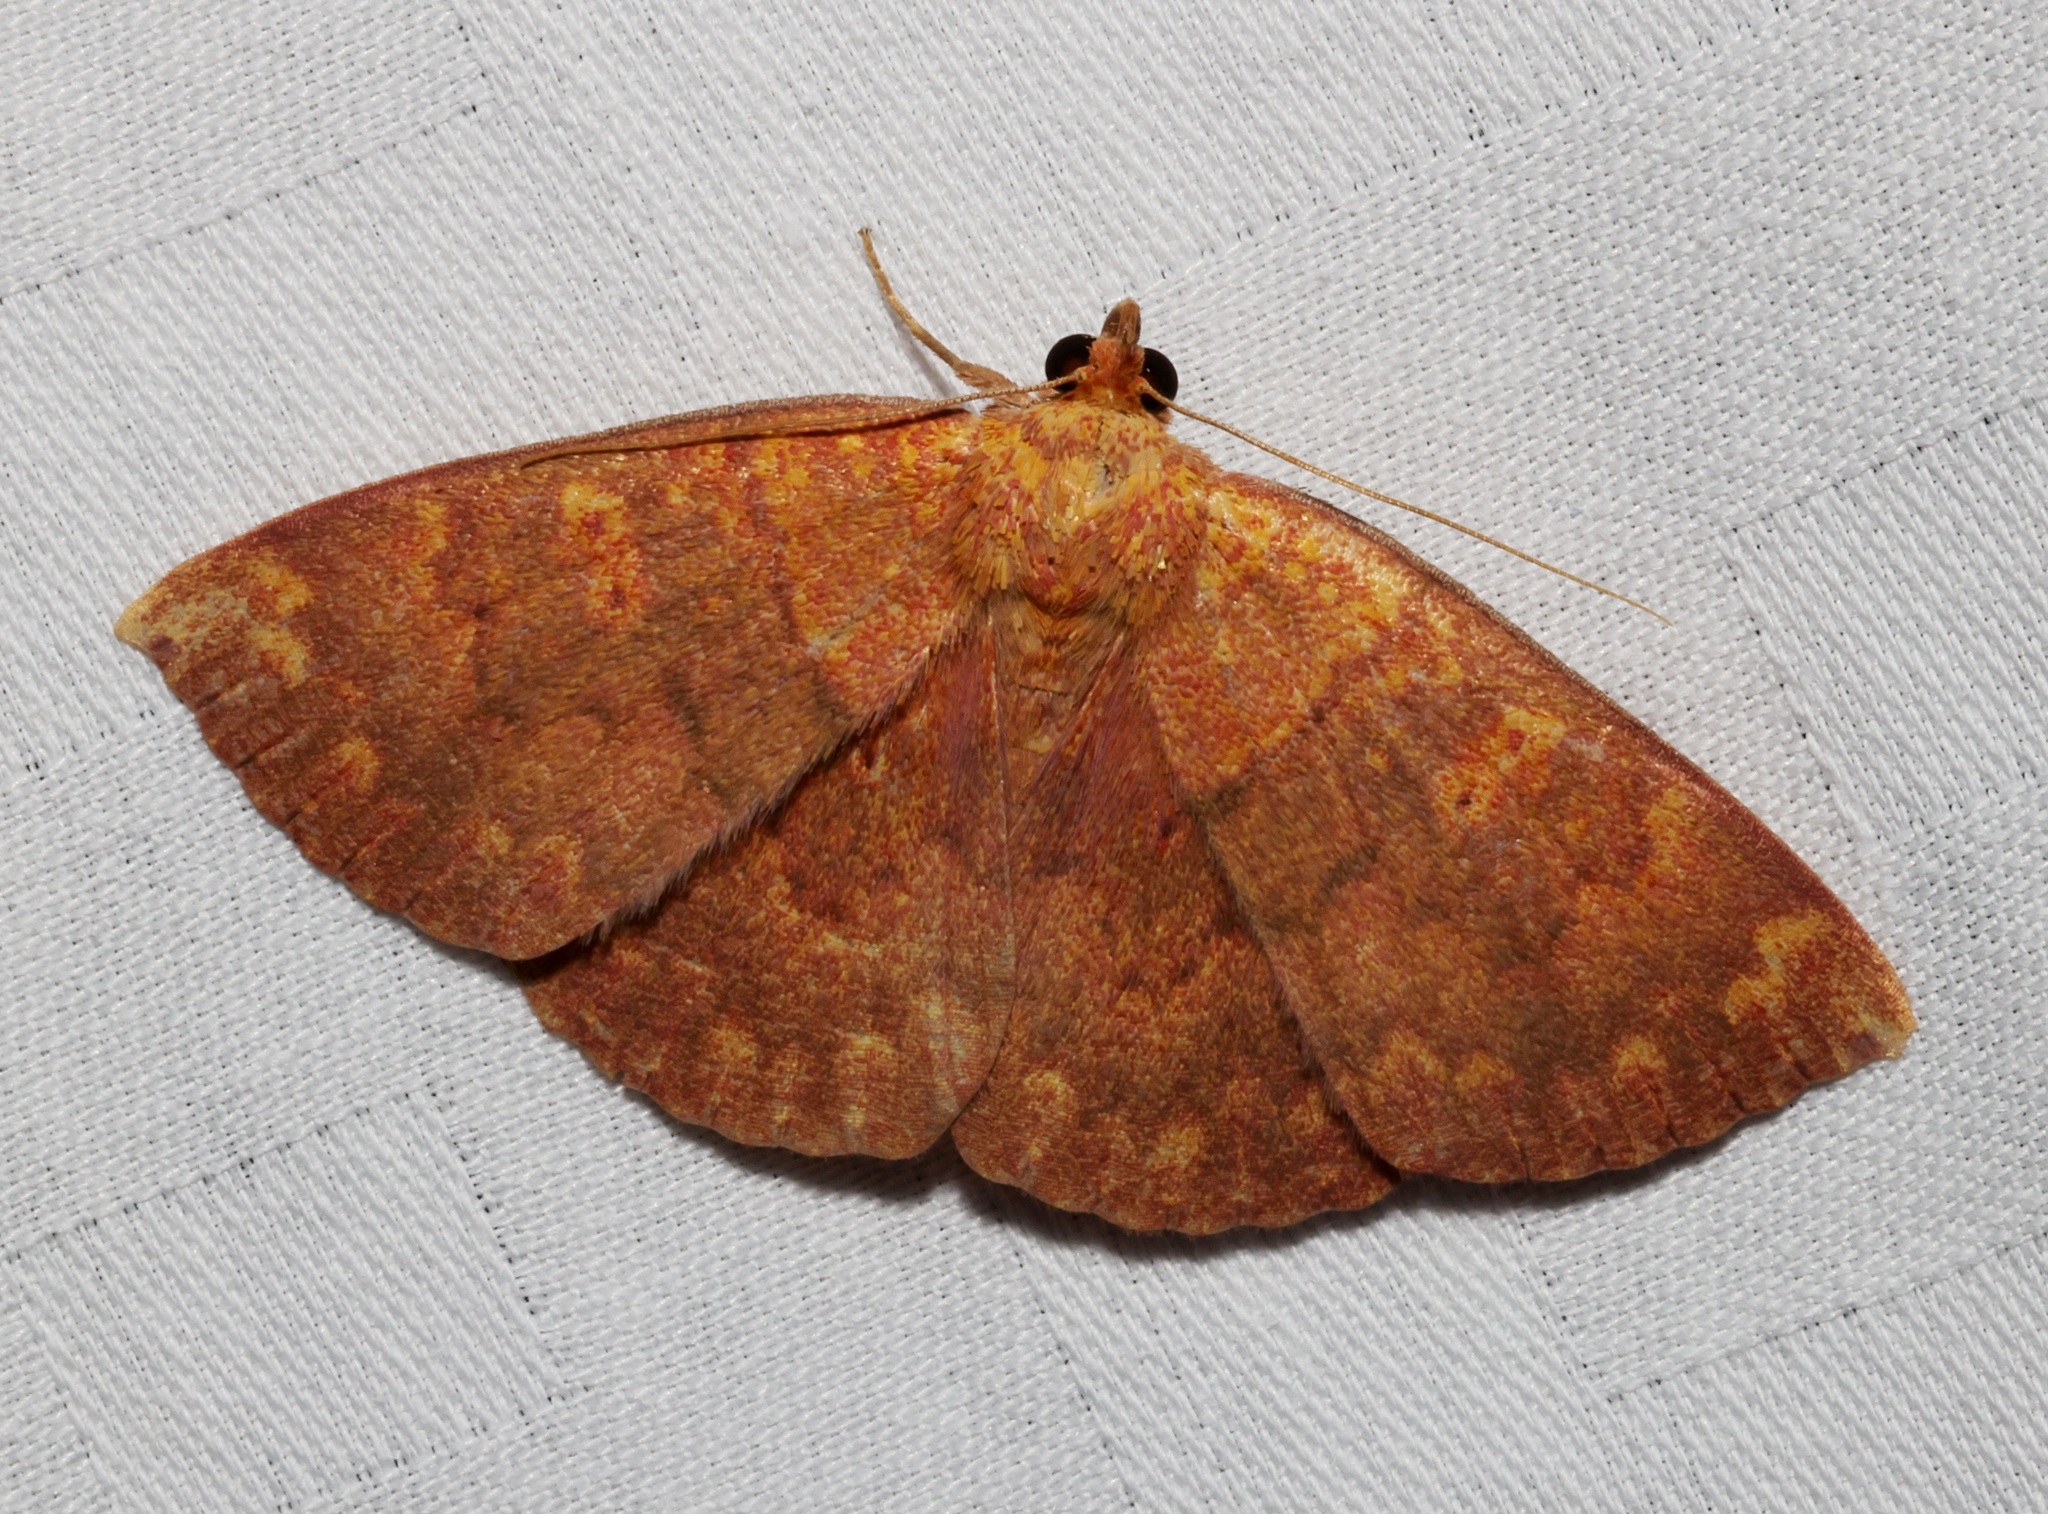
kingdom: Animalia
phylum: Arthropoda
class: Insecta
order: Lepidoptera
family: Erebidae
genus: Singara
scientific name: Singara diversalis
